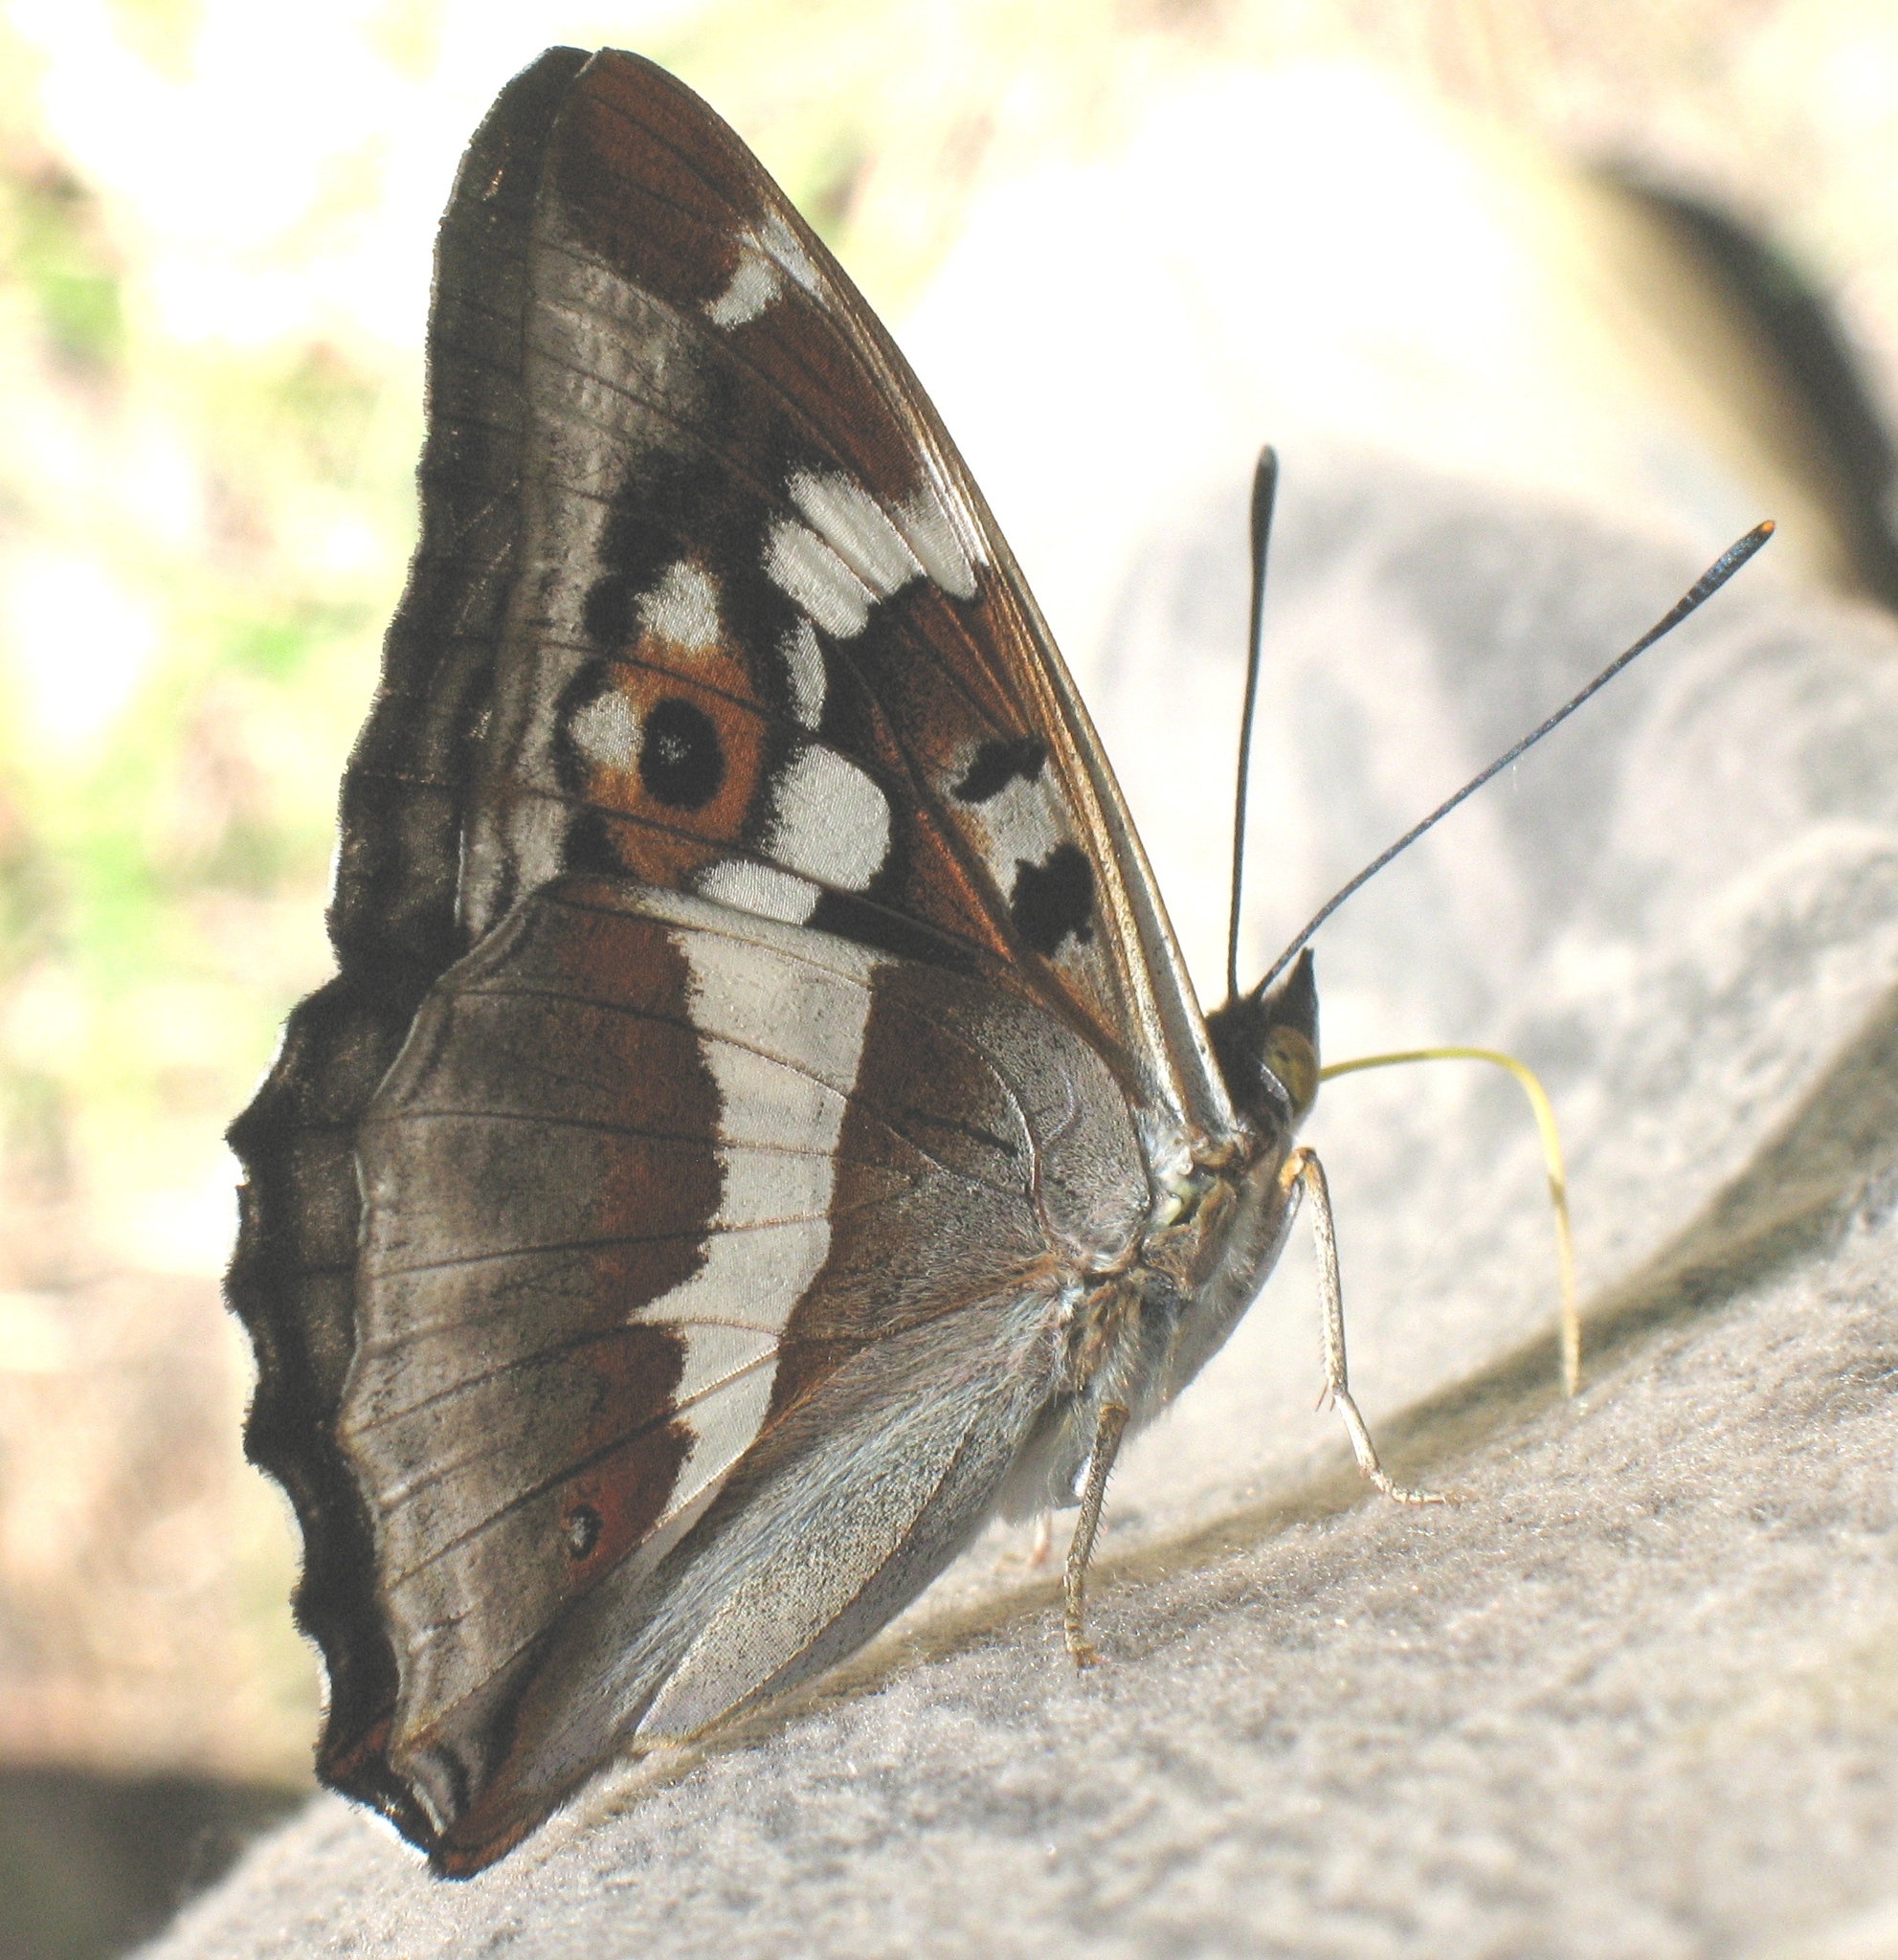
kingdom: Animalia
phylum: Arthropoda
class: Insecta
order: Lepidoptera
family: Nymphalidae
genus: Apatura
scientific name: Apatura iris
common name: Purple emperor
